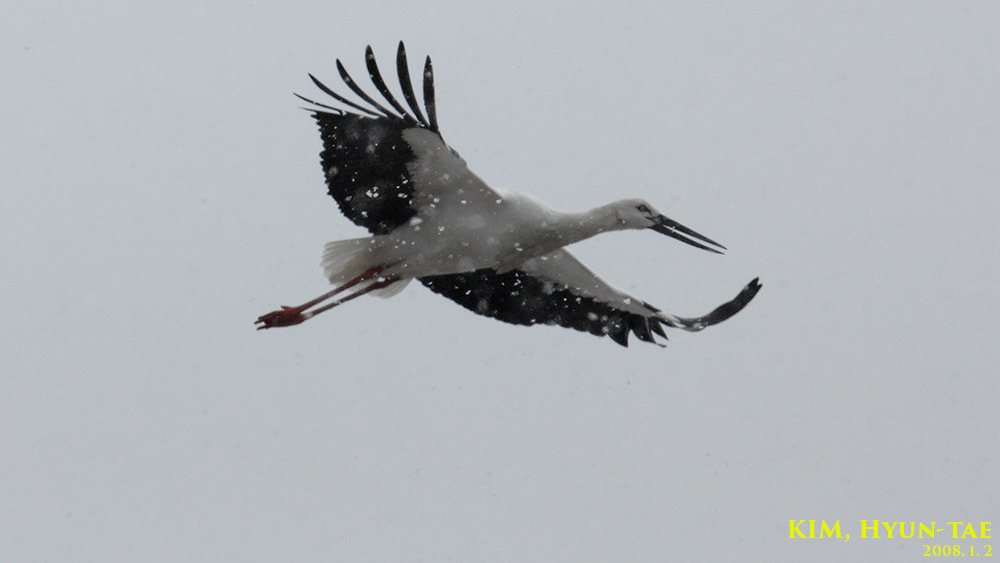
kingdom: Animalia
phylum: Chordata
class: Aves
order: Ciconiiformes
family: Ciconiidae
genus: Ciconia
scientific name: Ciconia boyciana
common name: Oriental stork
